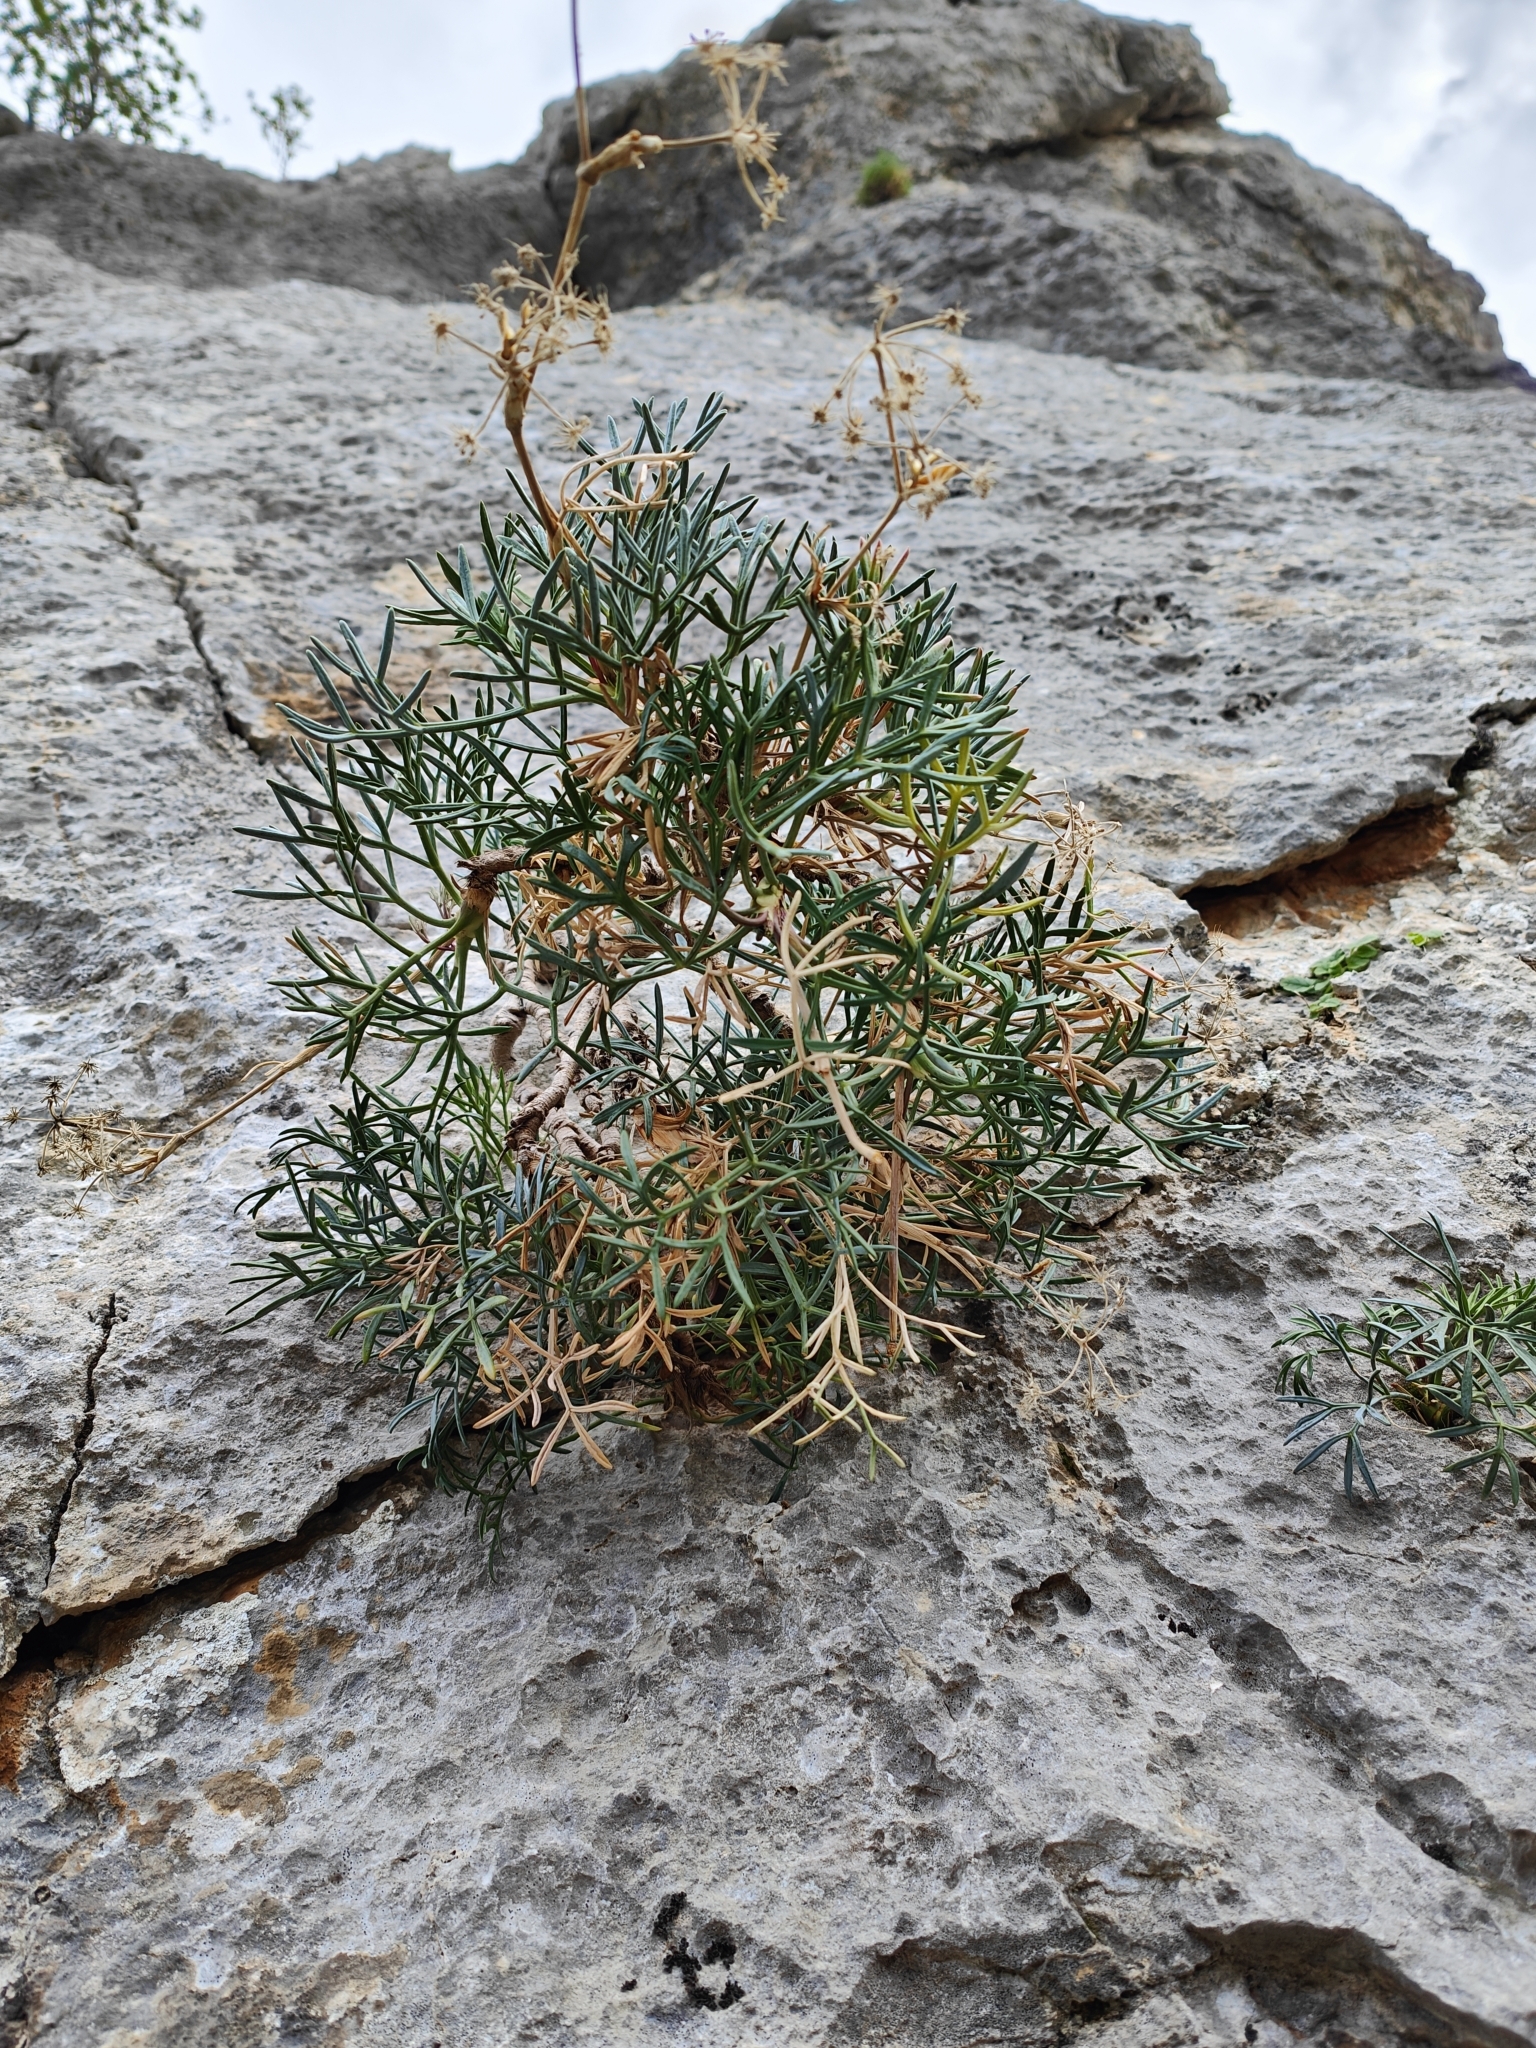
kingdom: Plantae
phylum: Tracheophyta
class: Magnoliopsida
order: Apiales
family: Apiaceae
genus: Seseli
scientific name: Seseli bocconei
